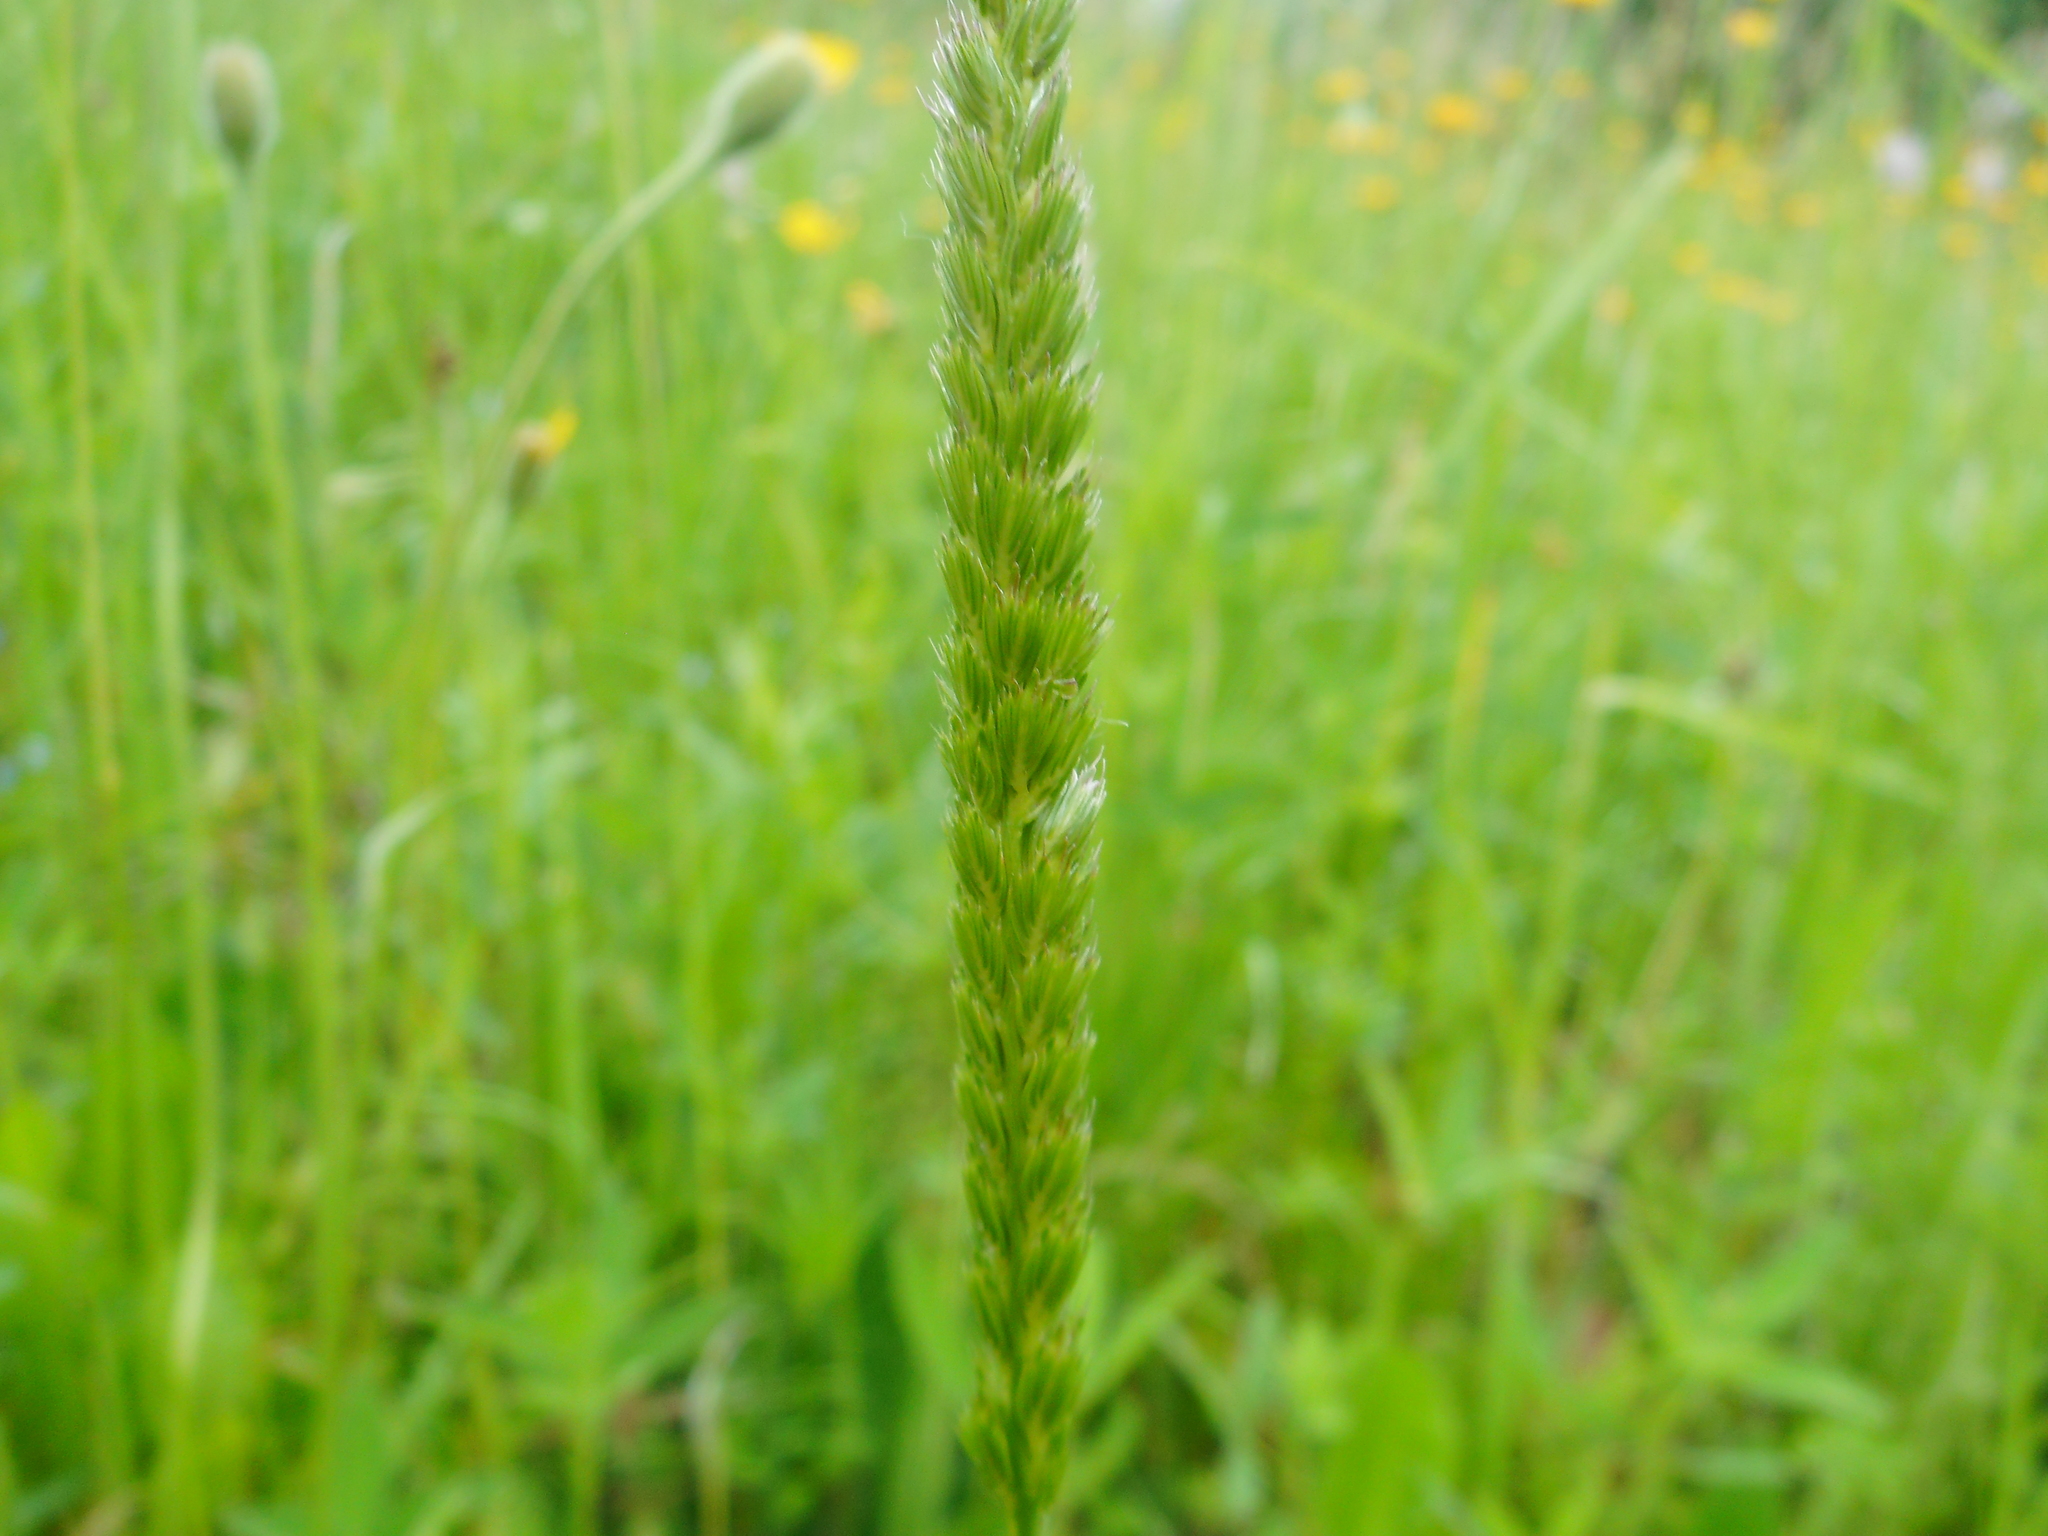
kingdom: Plantae
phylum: Tracheophyta
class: Liliopsida
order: Poales
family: Poaceae
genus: Cynosurus
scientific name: Cynosurus cristatus
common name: Crested dog's-tail
